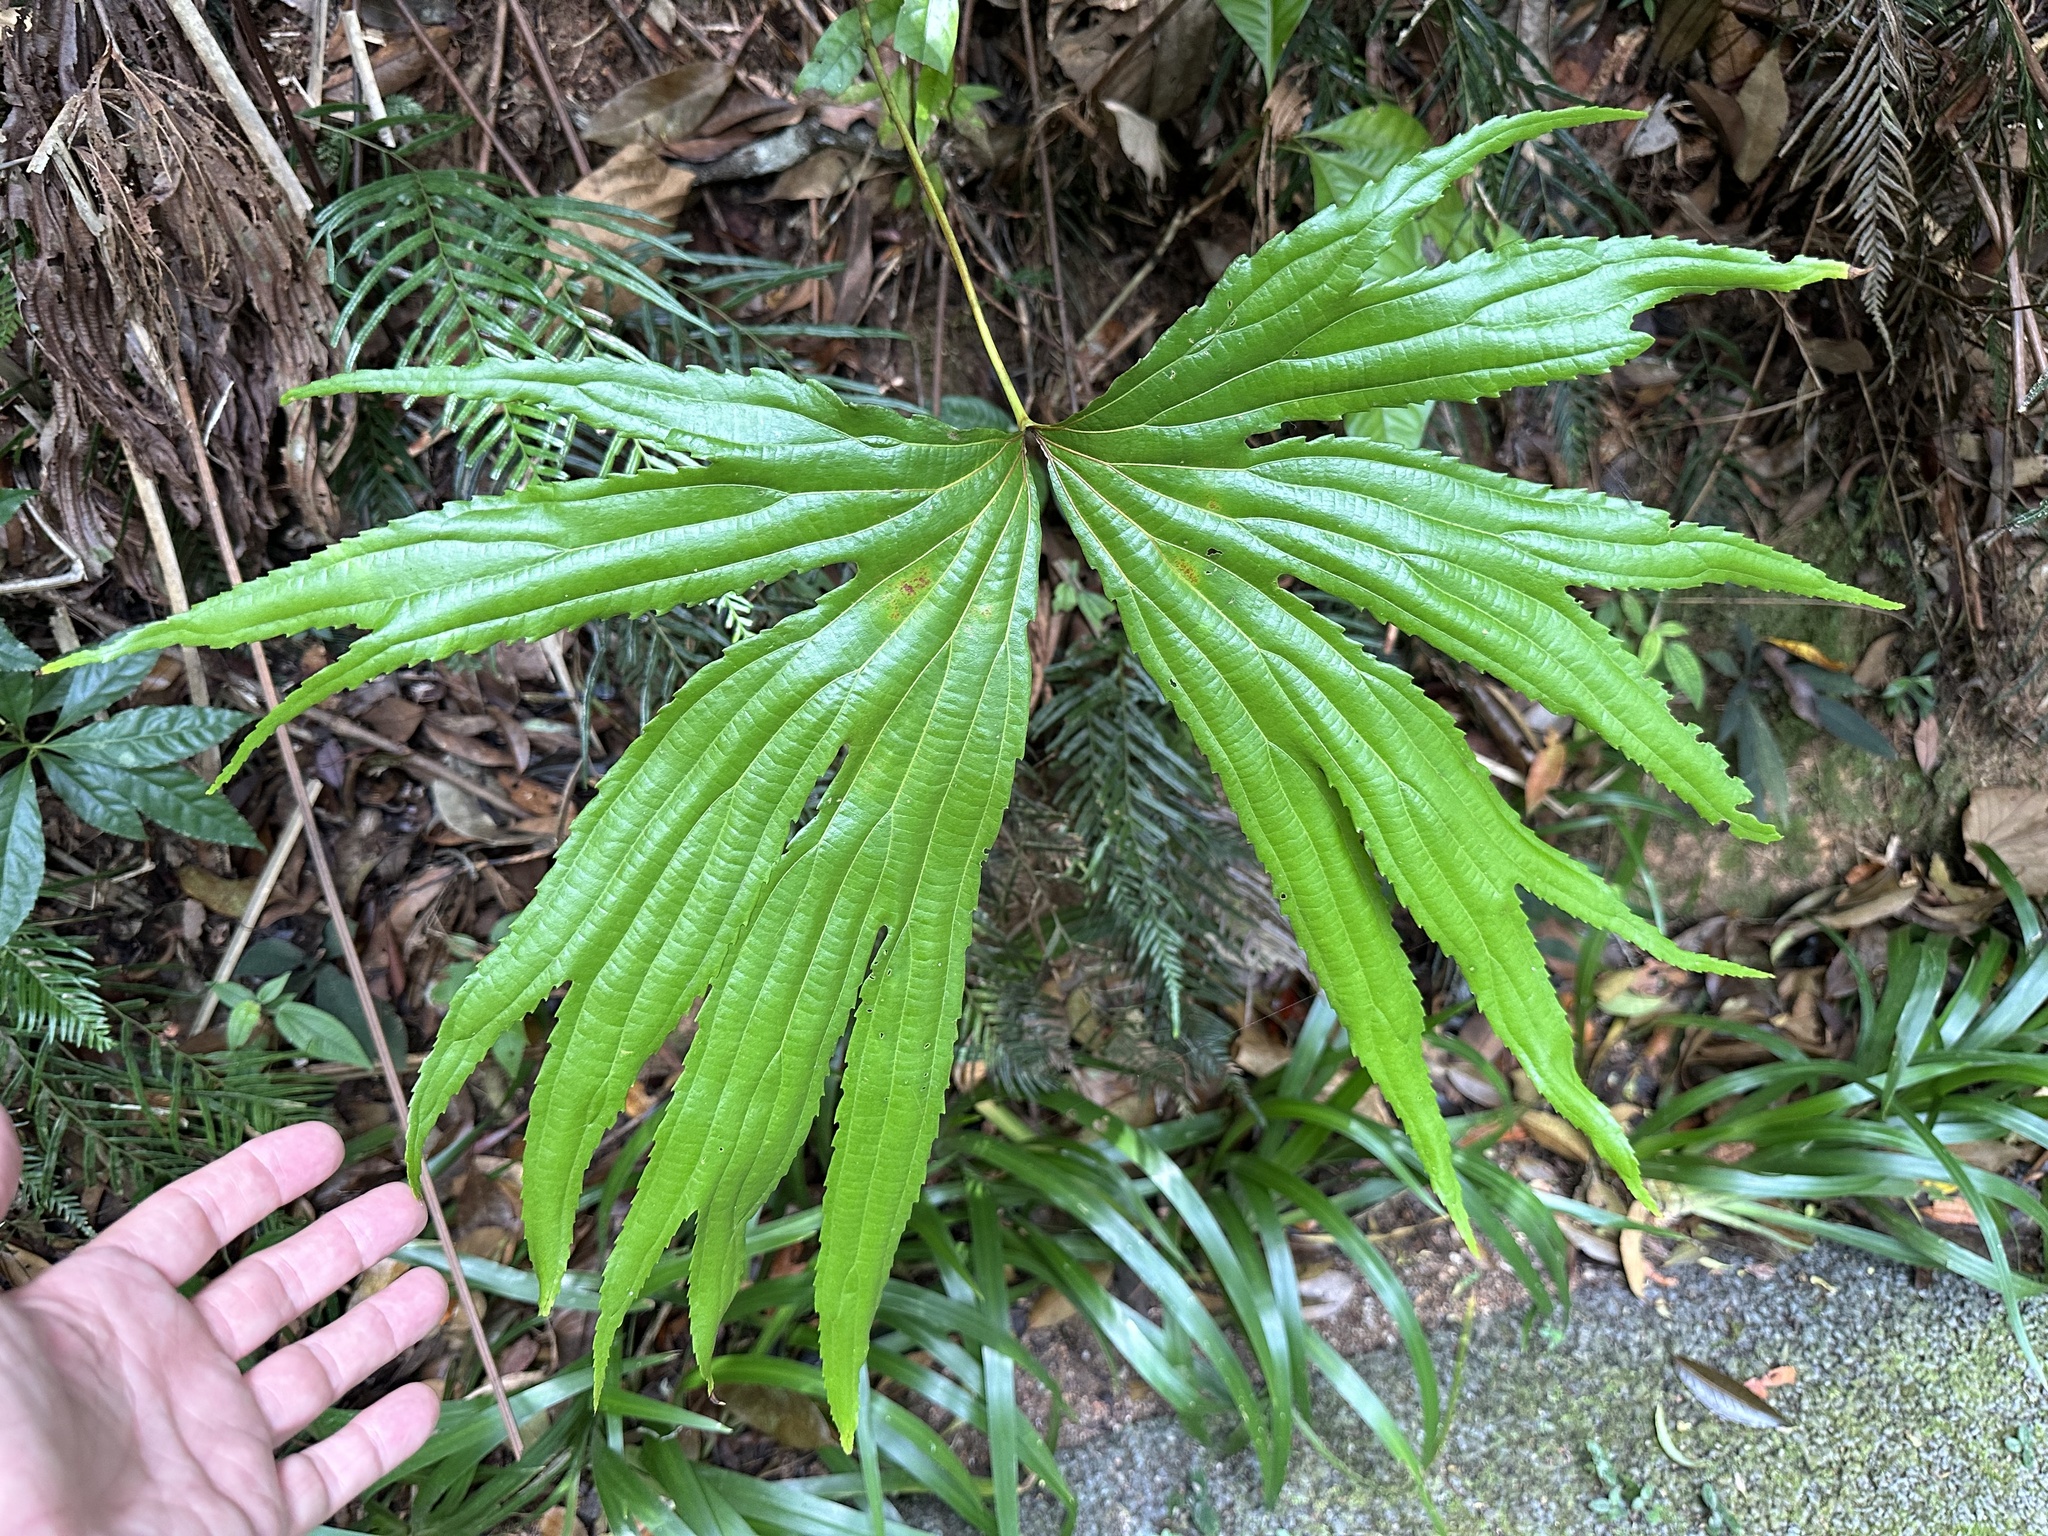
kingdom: Plantae
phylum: Tracheophyta
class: Polypodiopsida
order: Gleicheniales
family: Dipteridaceae
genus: Dipteris
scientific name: Dipteris conjugata
